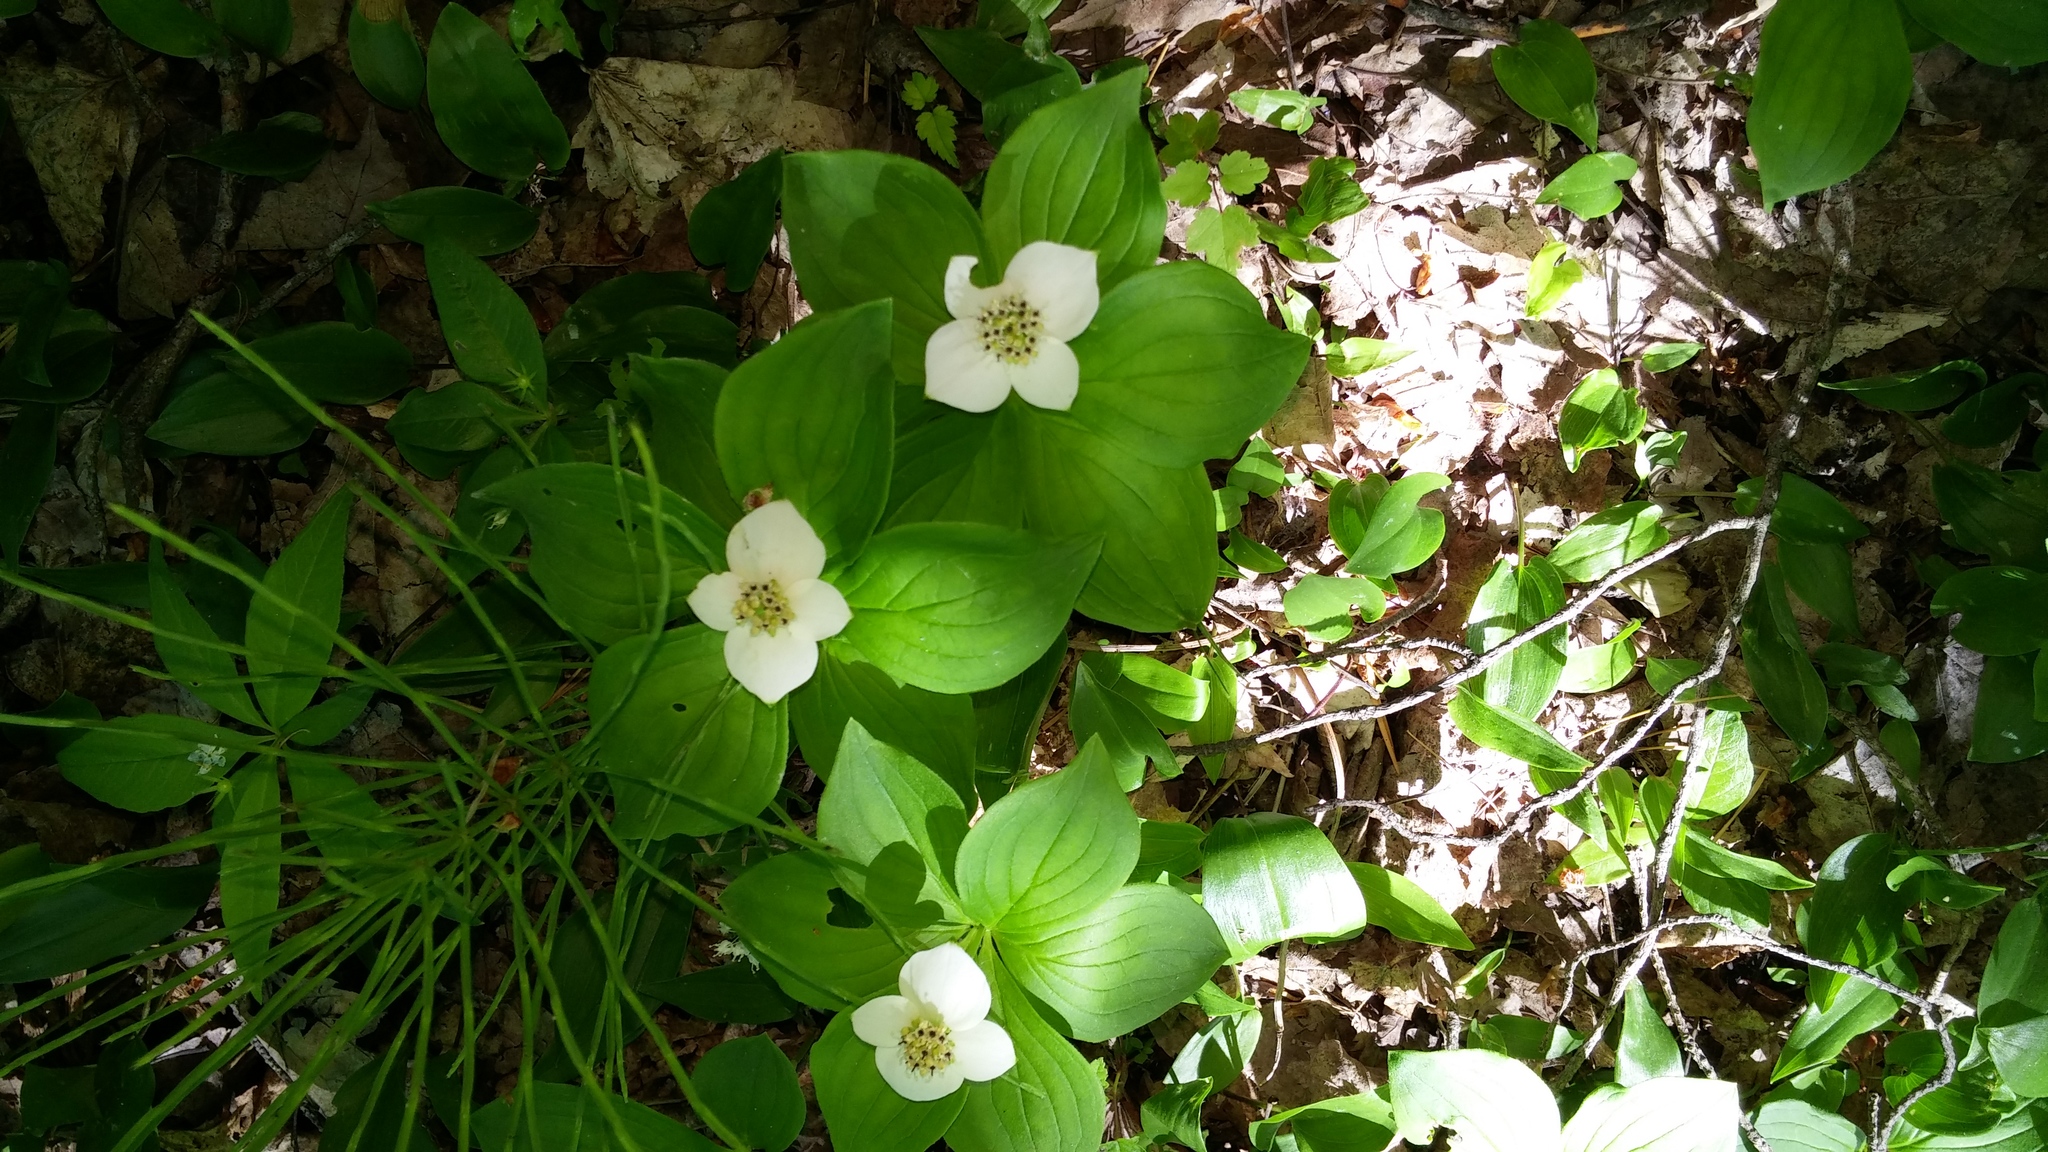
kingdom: Plantae
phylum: Tracheophyta
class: Magnoliopsida
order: Cornales
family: Cornaceae
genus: Cornus
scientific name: Cornus canadensis
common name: Creeping dogwood
